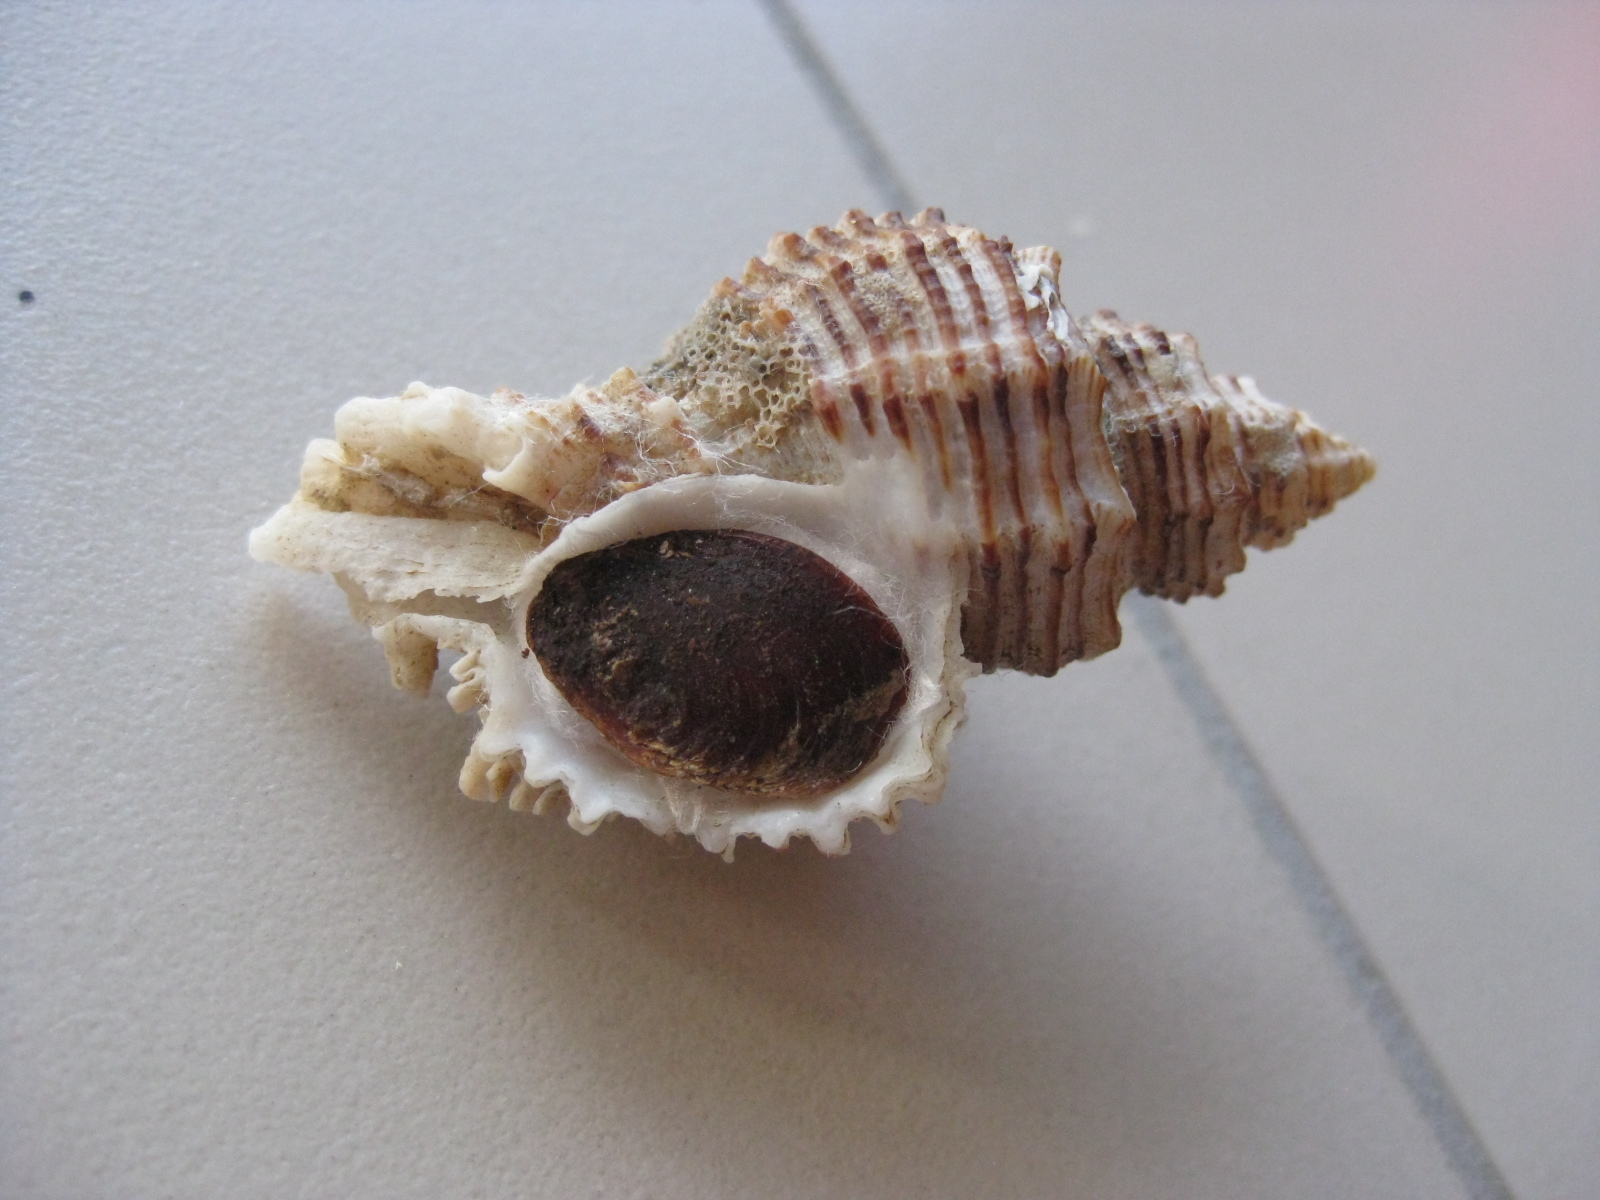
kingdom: Animalia
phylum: Mollusca
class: Gastropoda
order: Neogastropoda
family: Muricidae
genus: Murexsul
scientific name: Murexsul octogonus
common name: Octagon murex
